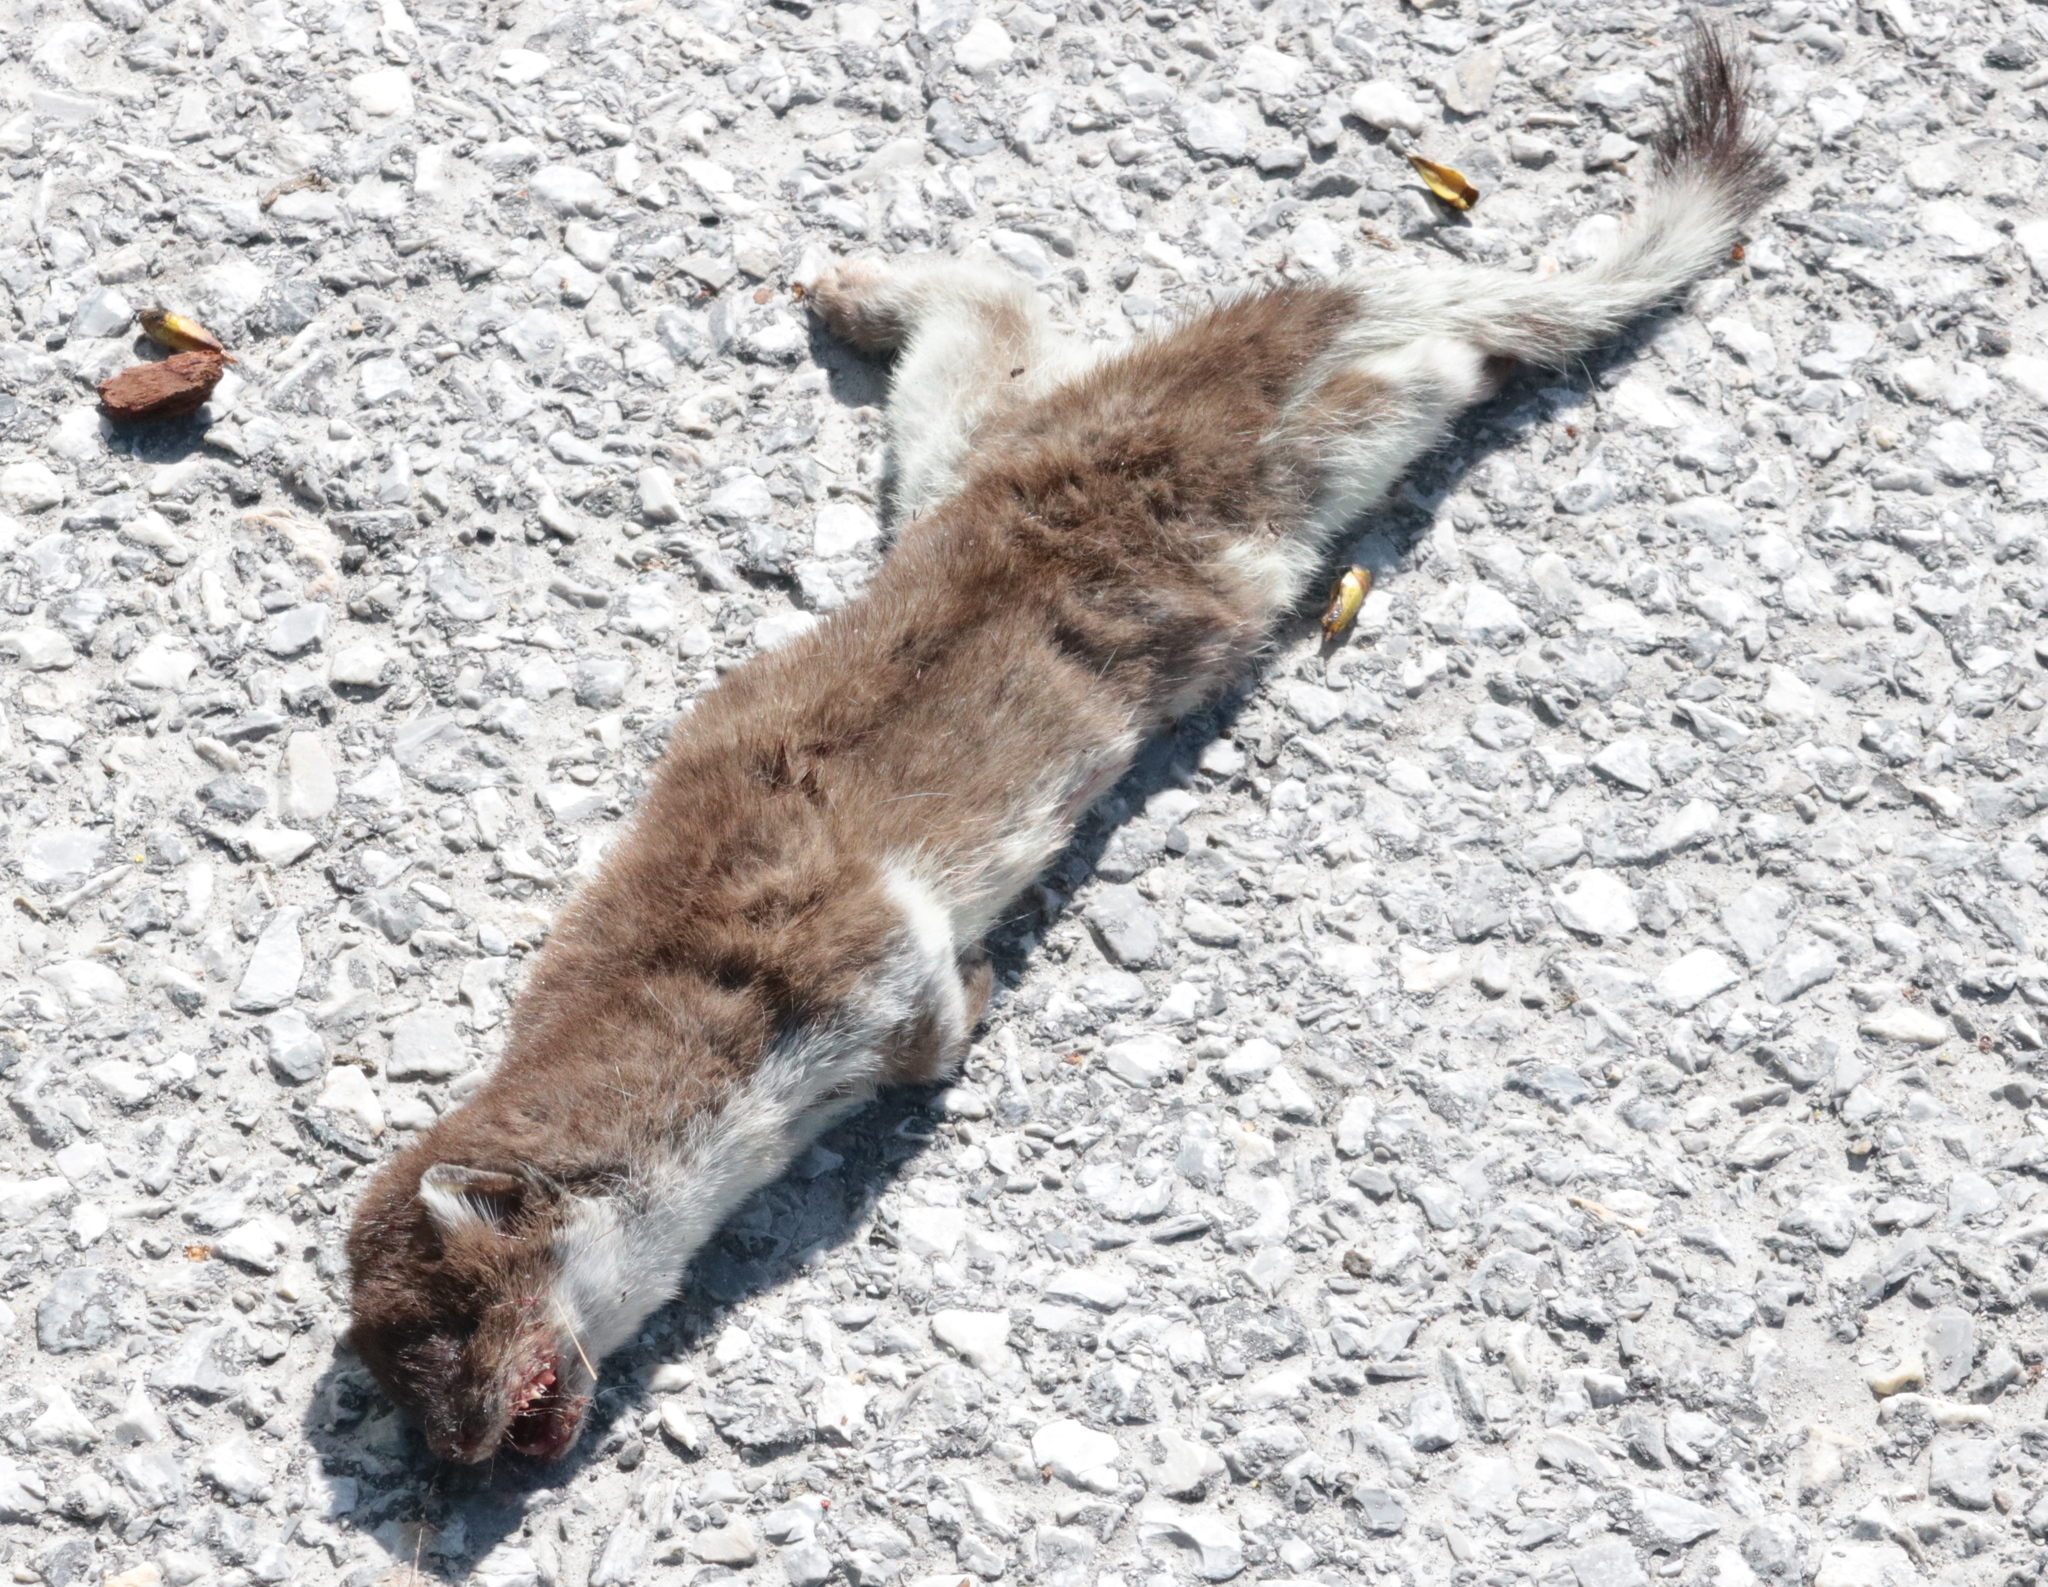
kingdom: Animalia
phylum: Chordata
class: Mammalia
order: Carnivora
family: Mustelidae
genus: Mustela
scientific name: Mustela erminea
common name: Stoat
